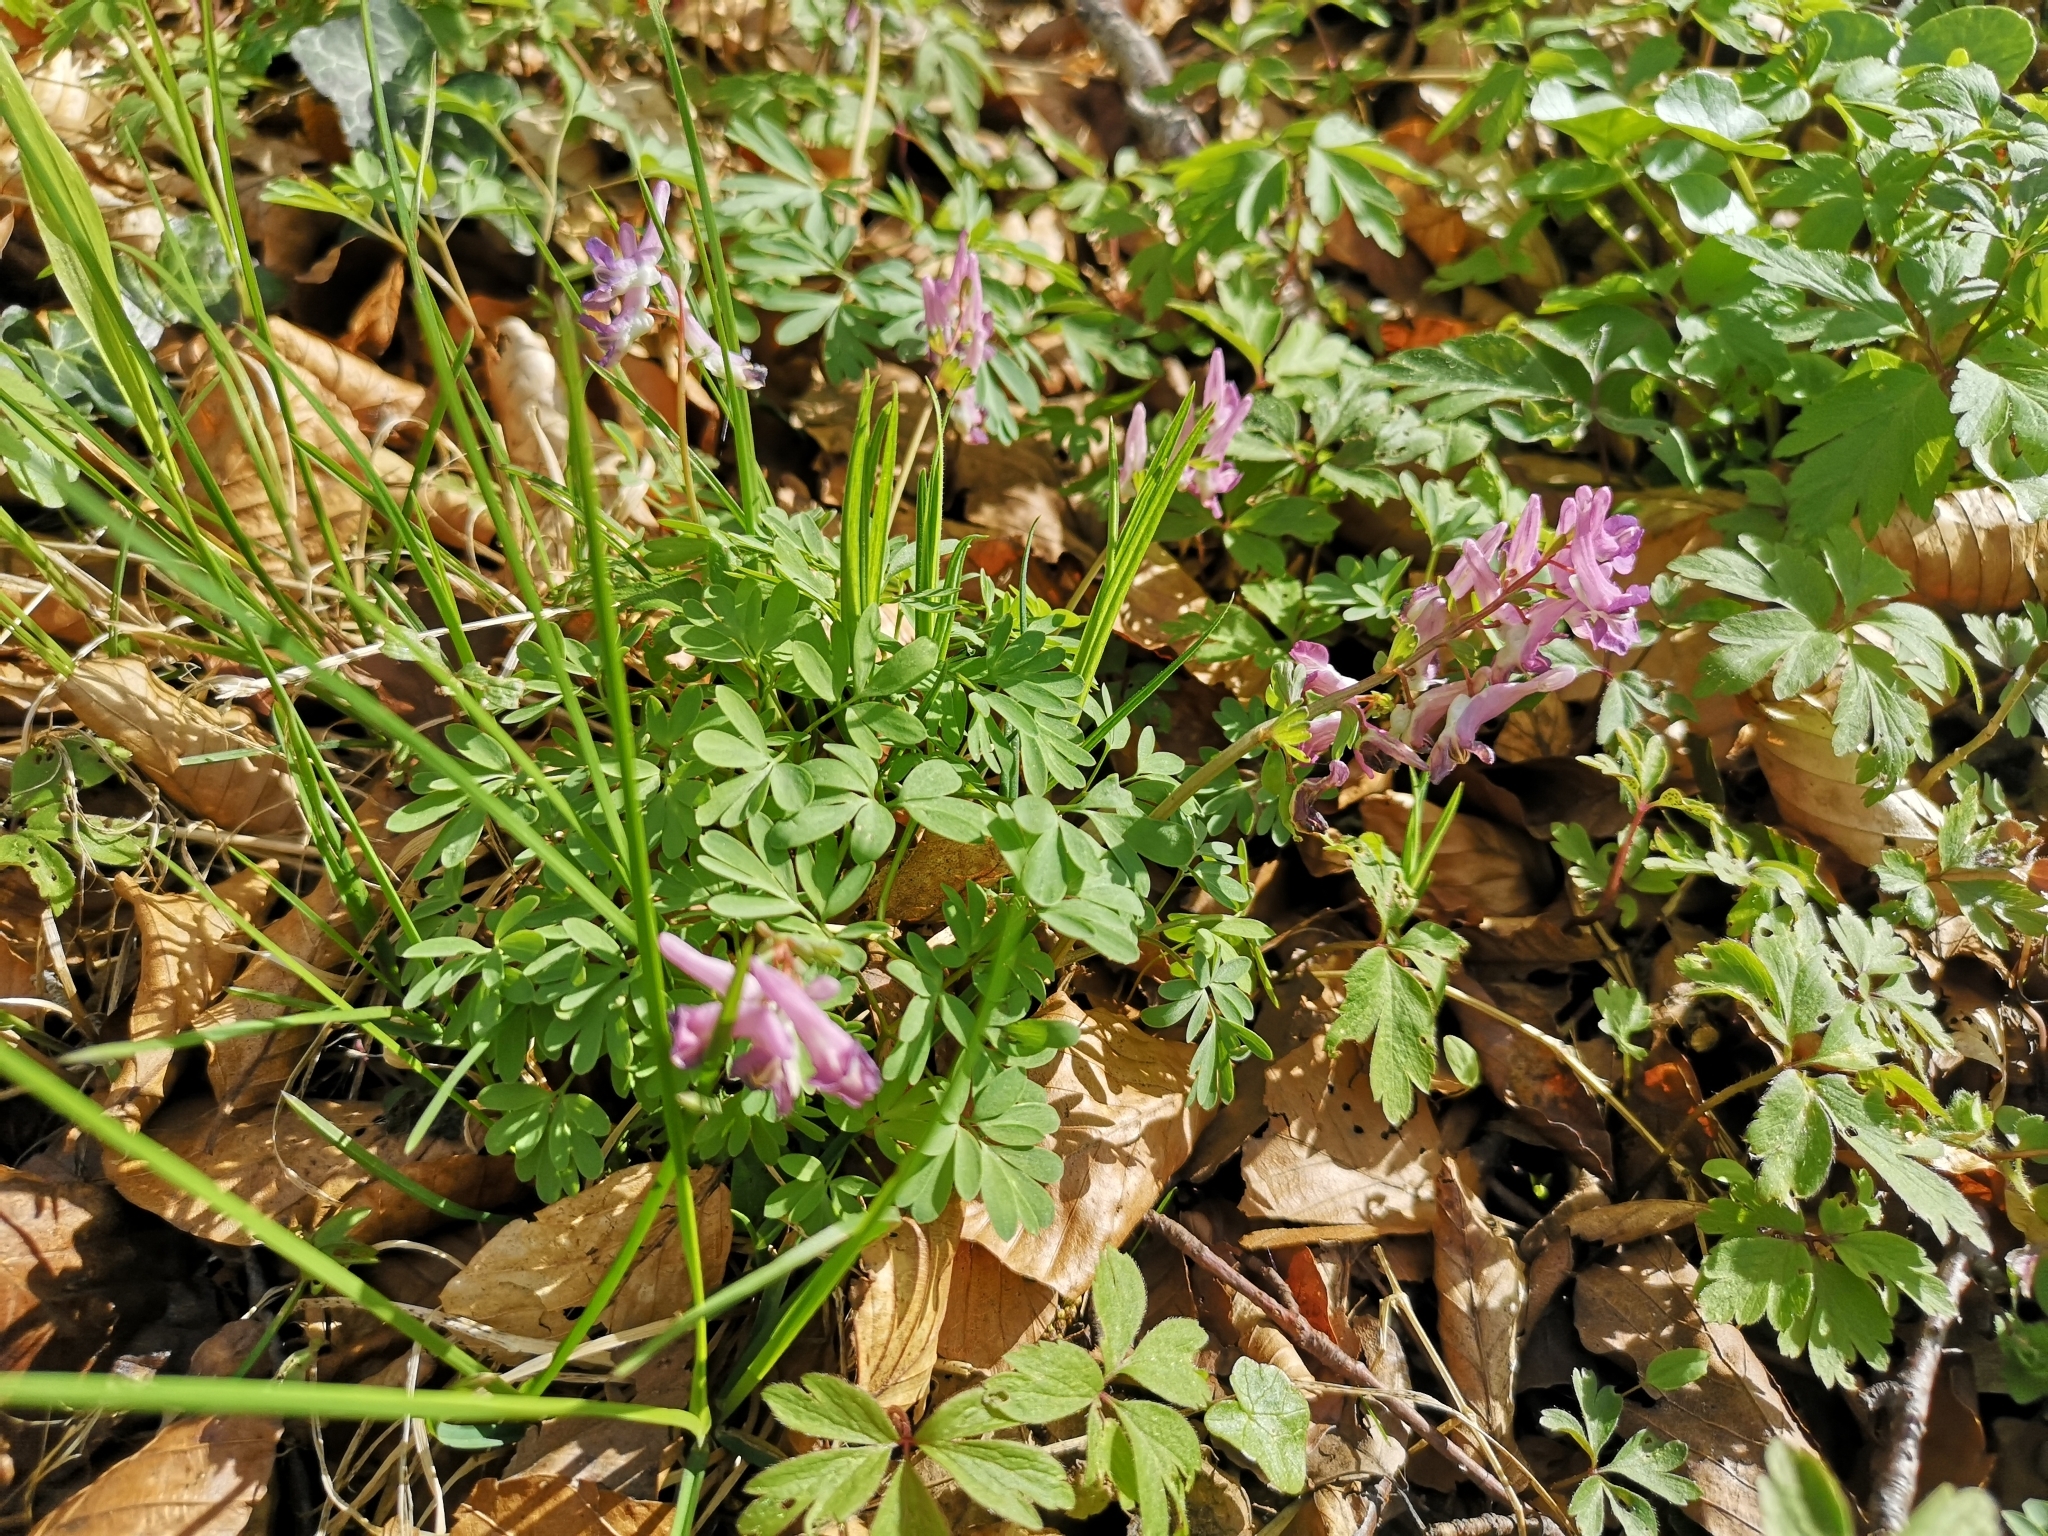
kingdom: Plantae
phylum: Tracheophyta
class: Magnoliopsida
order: Ranunculales
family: Papaveraceae
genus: Corydalis
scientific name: Corydalis solida
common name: Bird-in-a-bush
